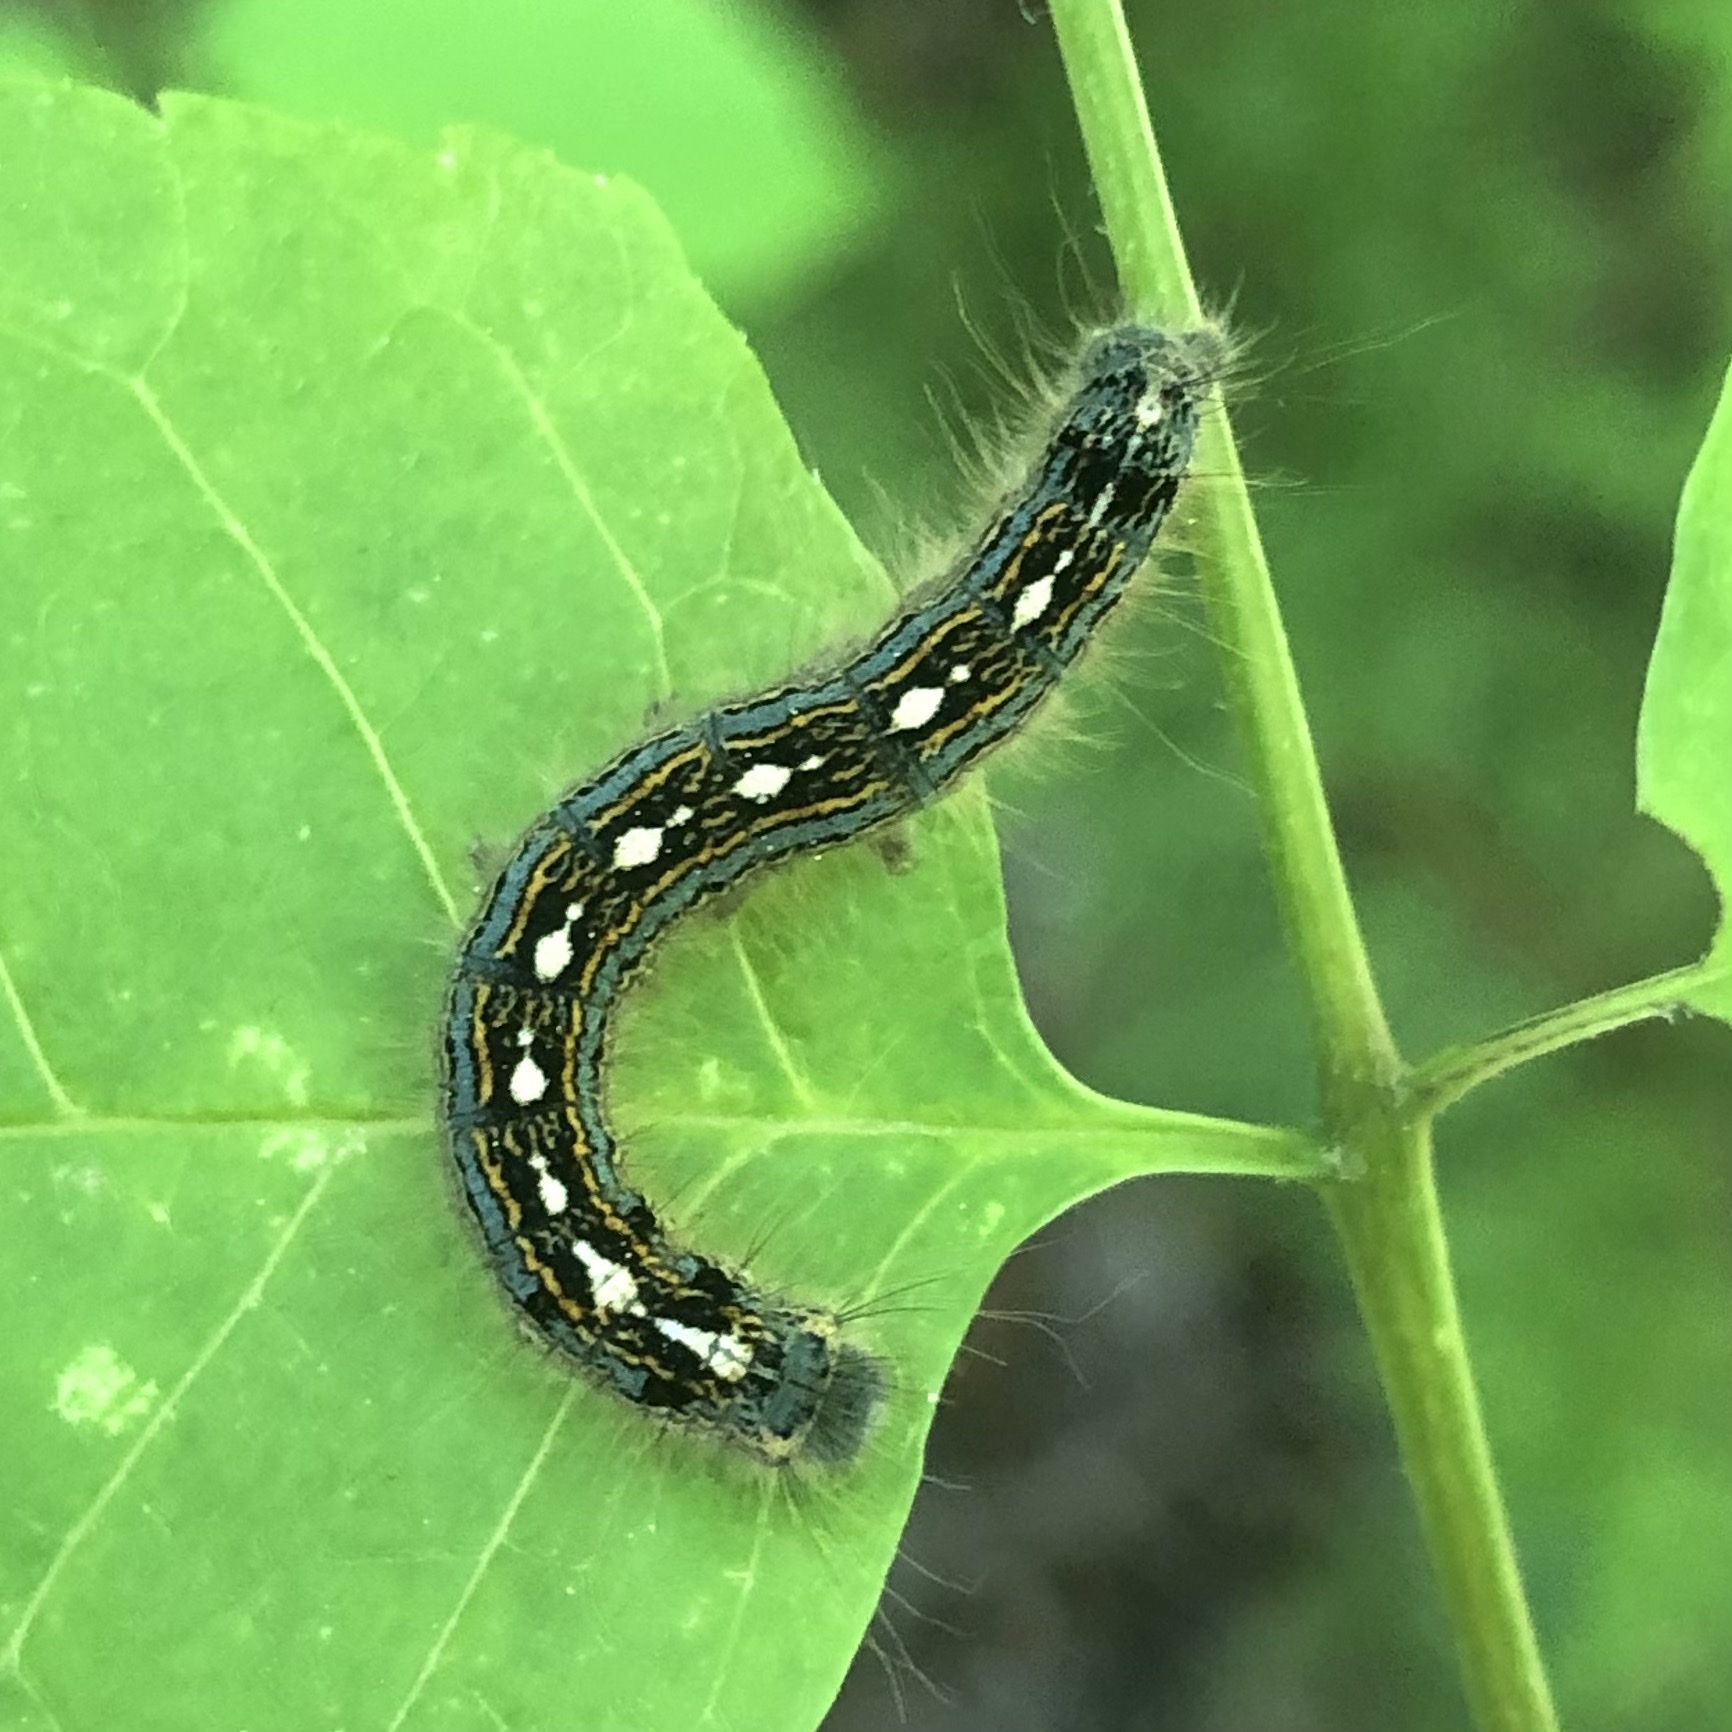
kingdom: Animalia
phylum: Arthropoda
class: Insecta
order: Lepidoptera
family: Lasiocampidae
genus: Malacosoma
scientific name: Malacosoma disstria
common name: Forest tent caterpillar
